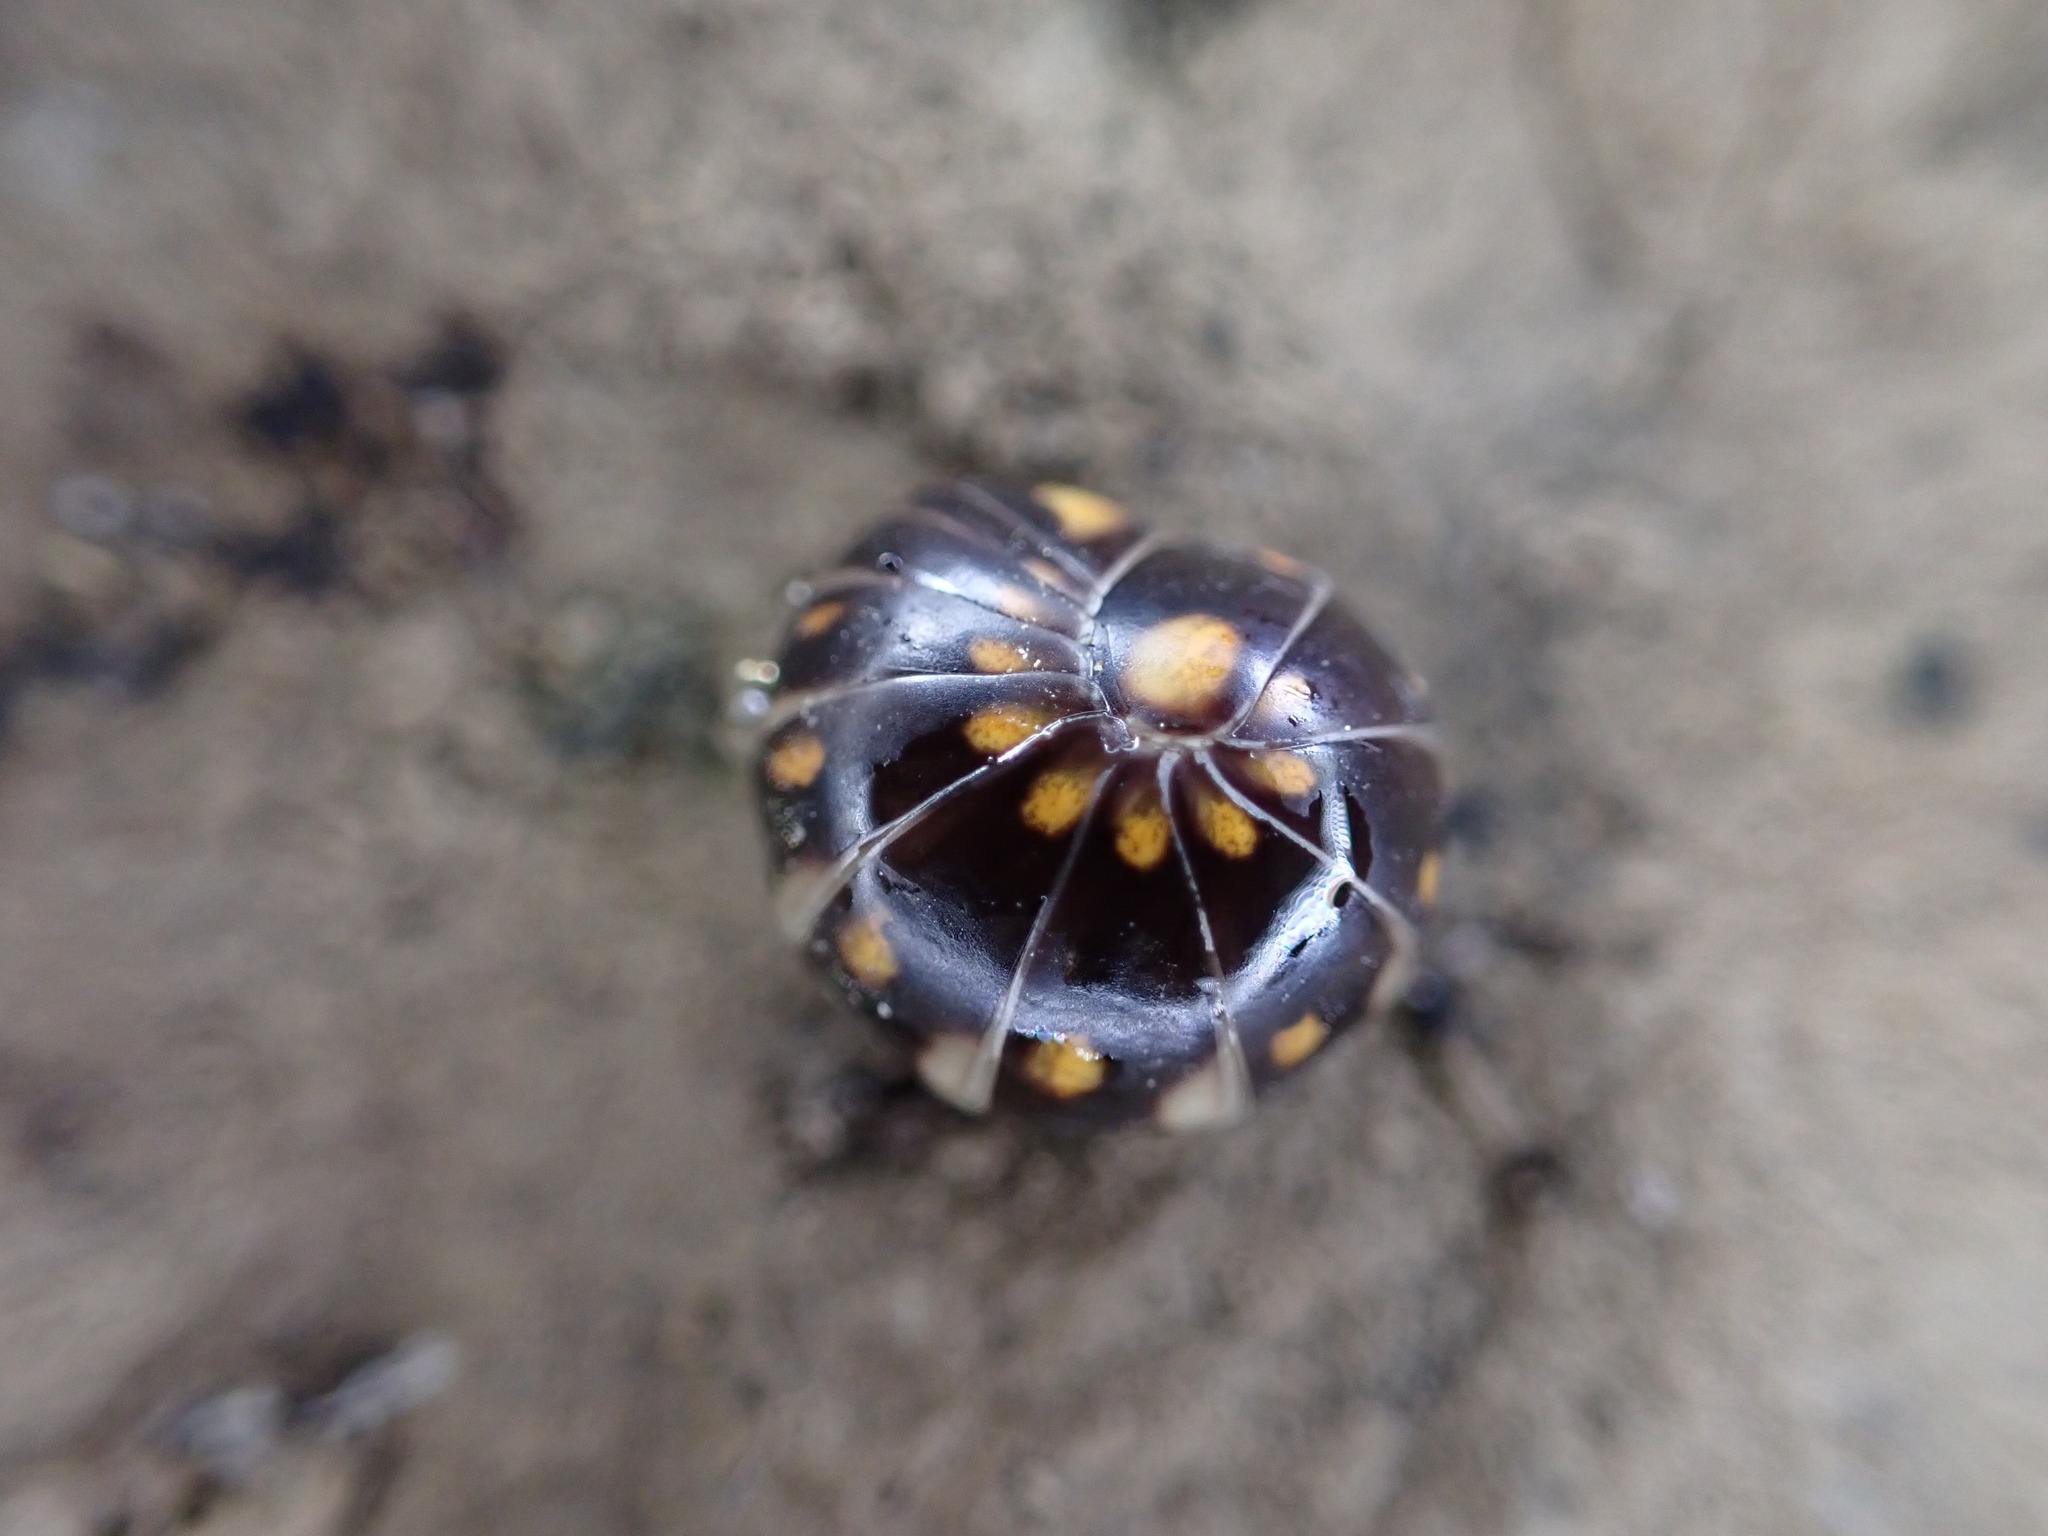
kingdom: Animalia
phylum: Arthropoda
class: Diplopoda
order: Glomerida
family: Glomeridae
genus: Glomeris
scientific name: Glomeris guttata
